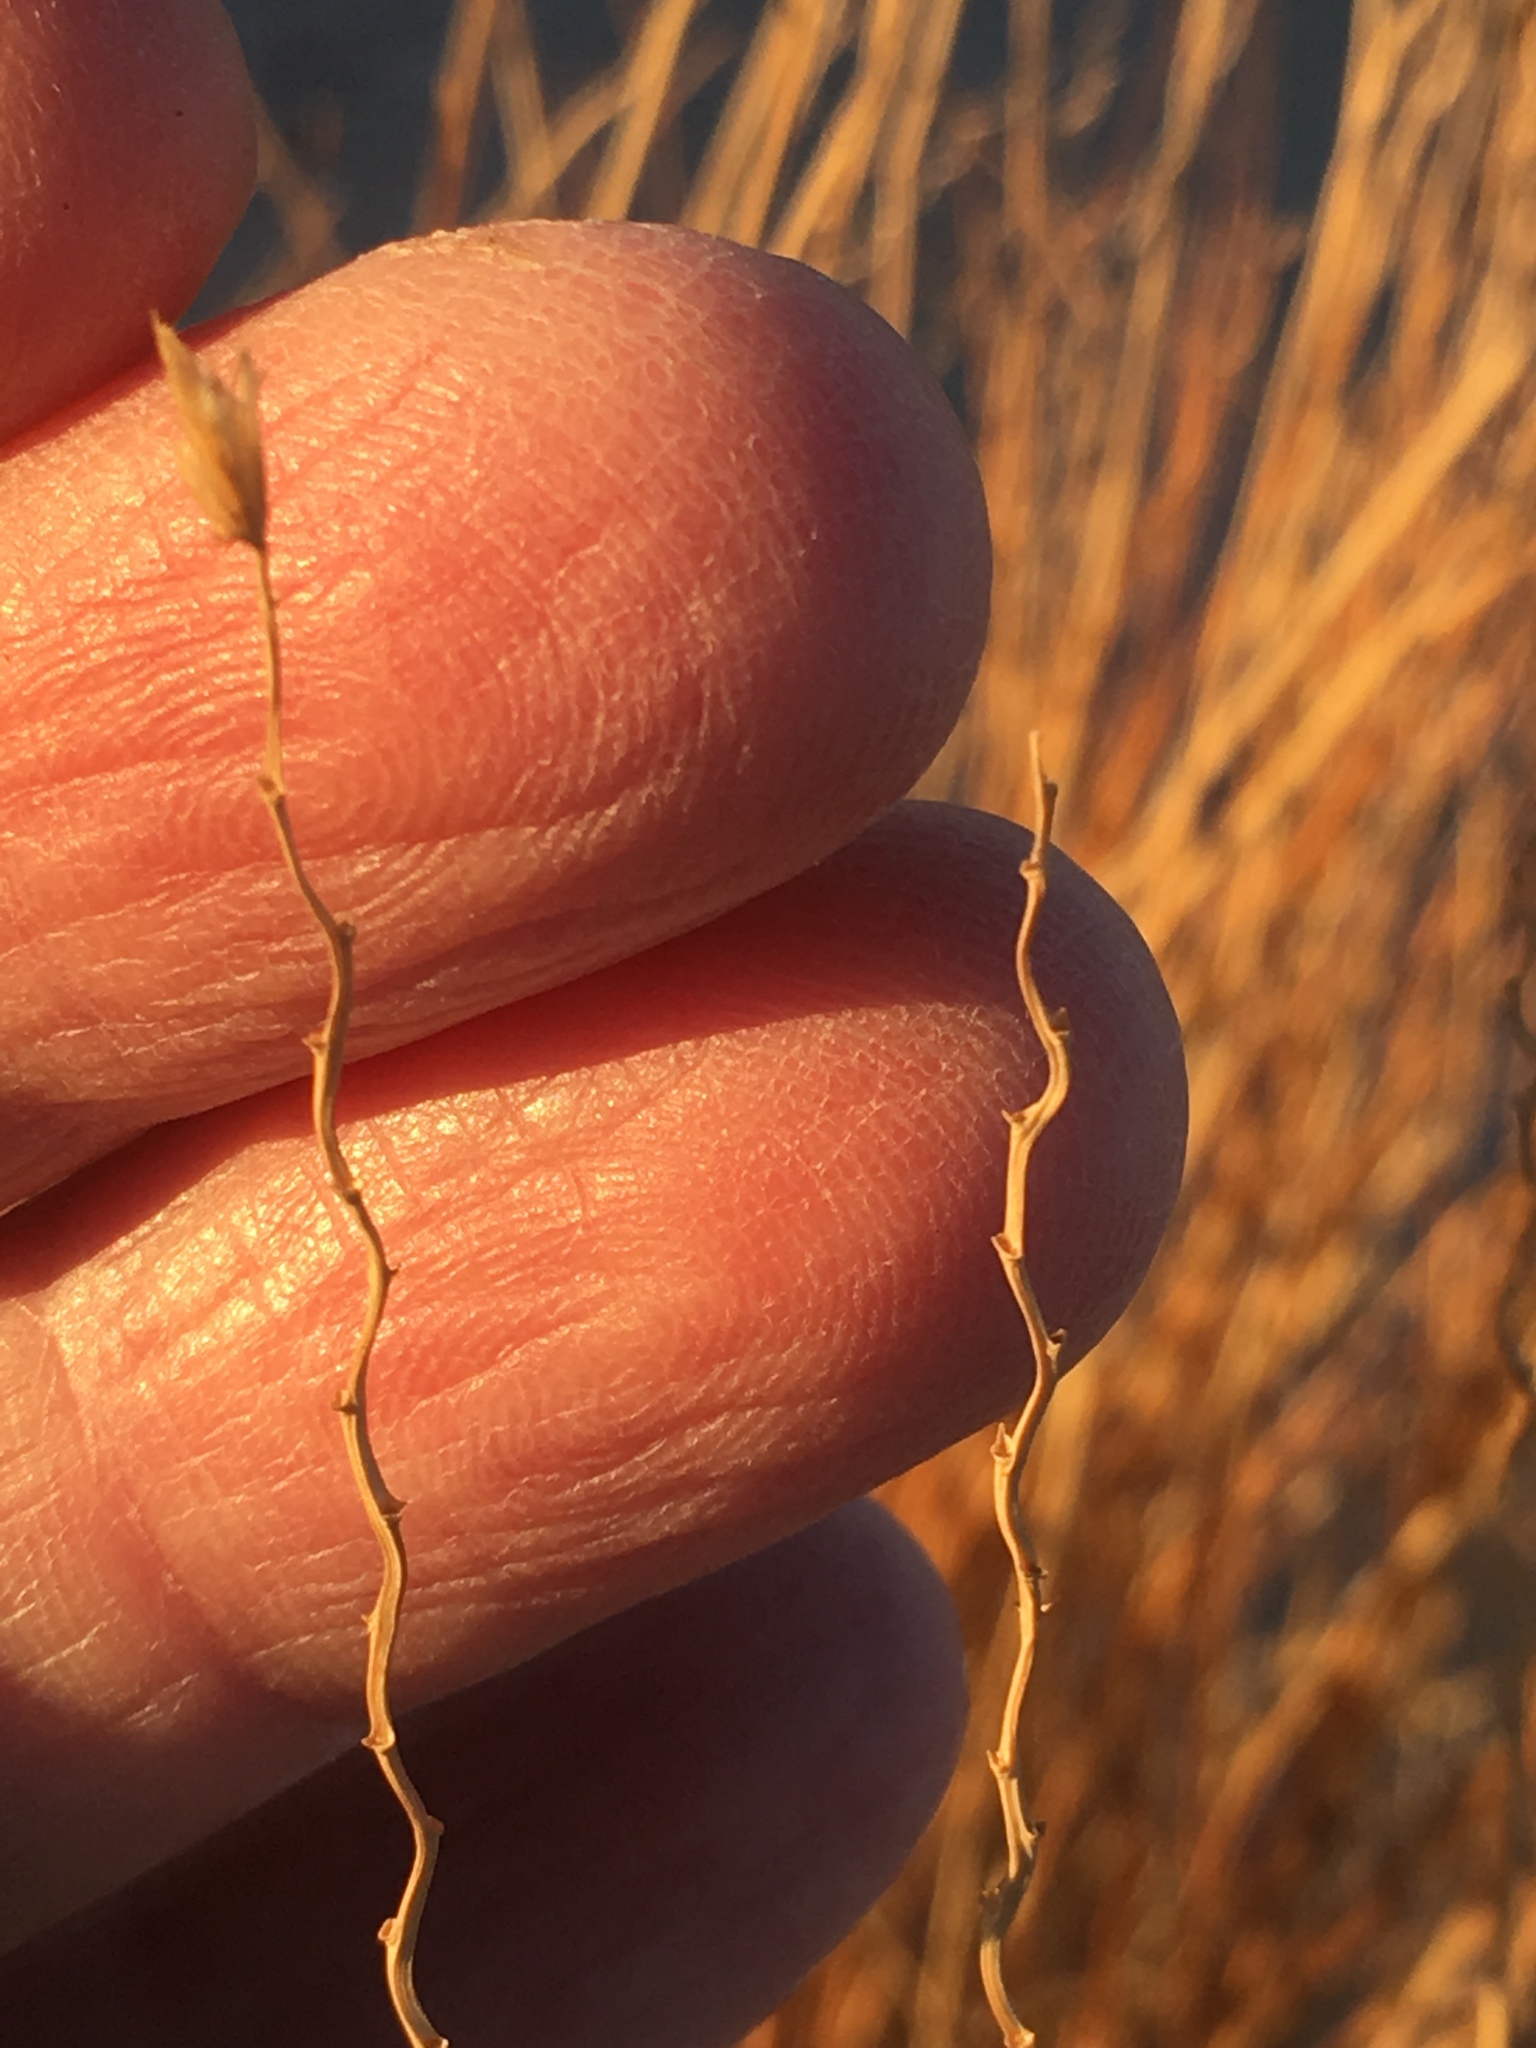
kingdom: Plantae
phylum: Tracheophyta
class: Liliopsida
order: Poales
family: Poaceae
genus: Hilaria
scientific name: Hilaria rigida
